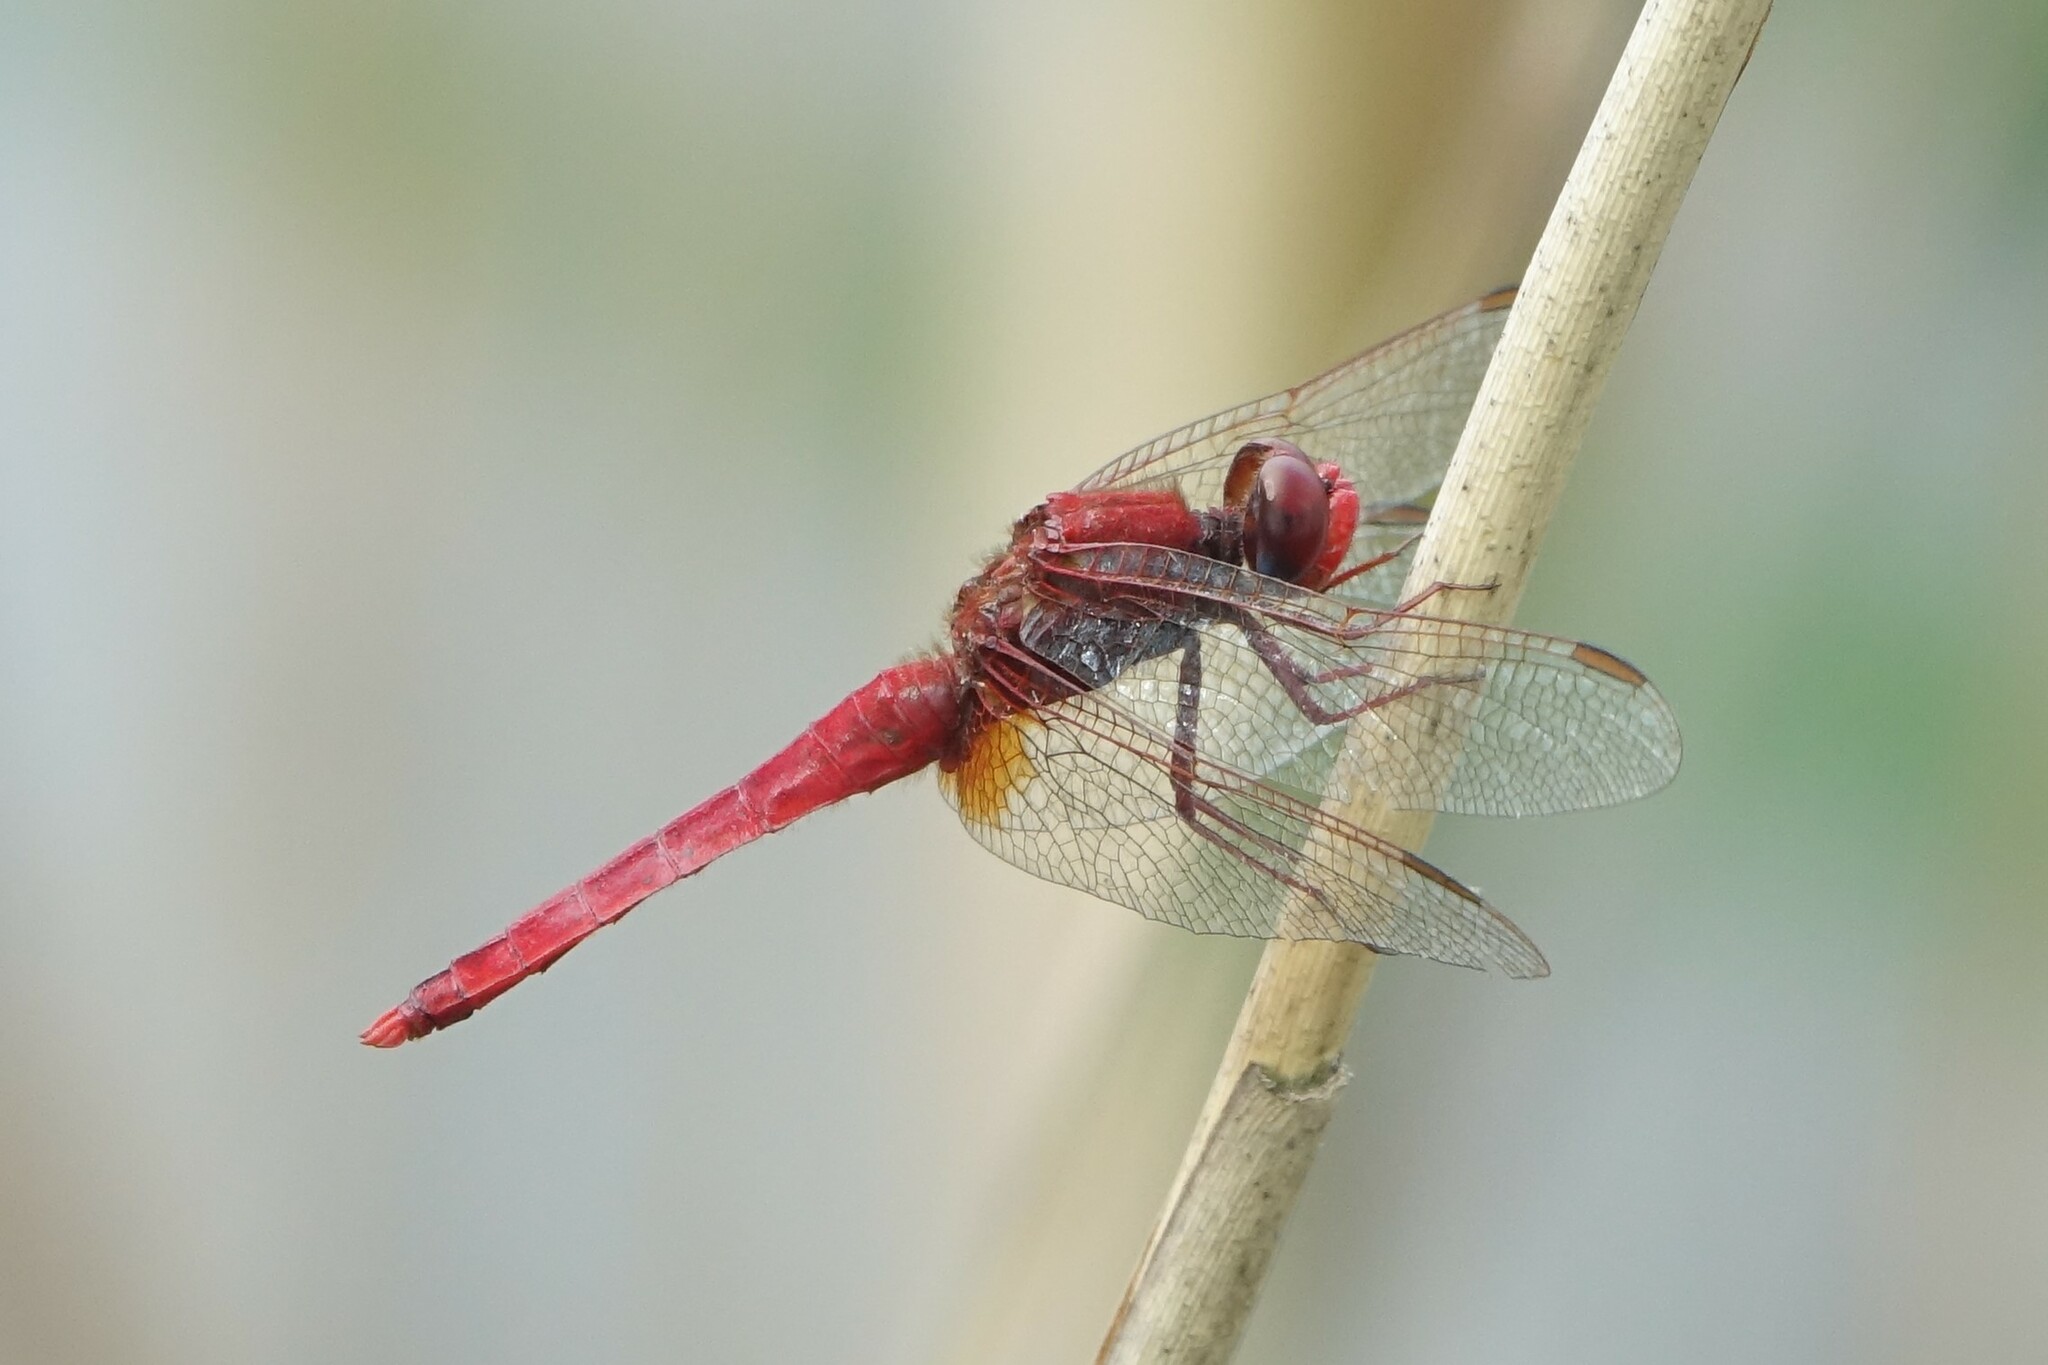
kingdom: Animalia
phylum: Arthropoda
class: Insecta
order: Odonata
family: Libellulidae
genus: Crocothemis
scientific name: Crocothemis erythraea
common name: Scarlet dragonfly
